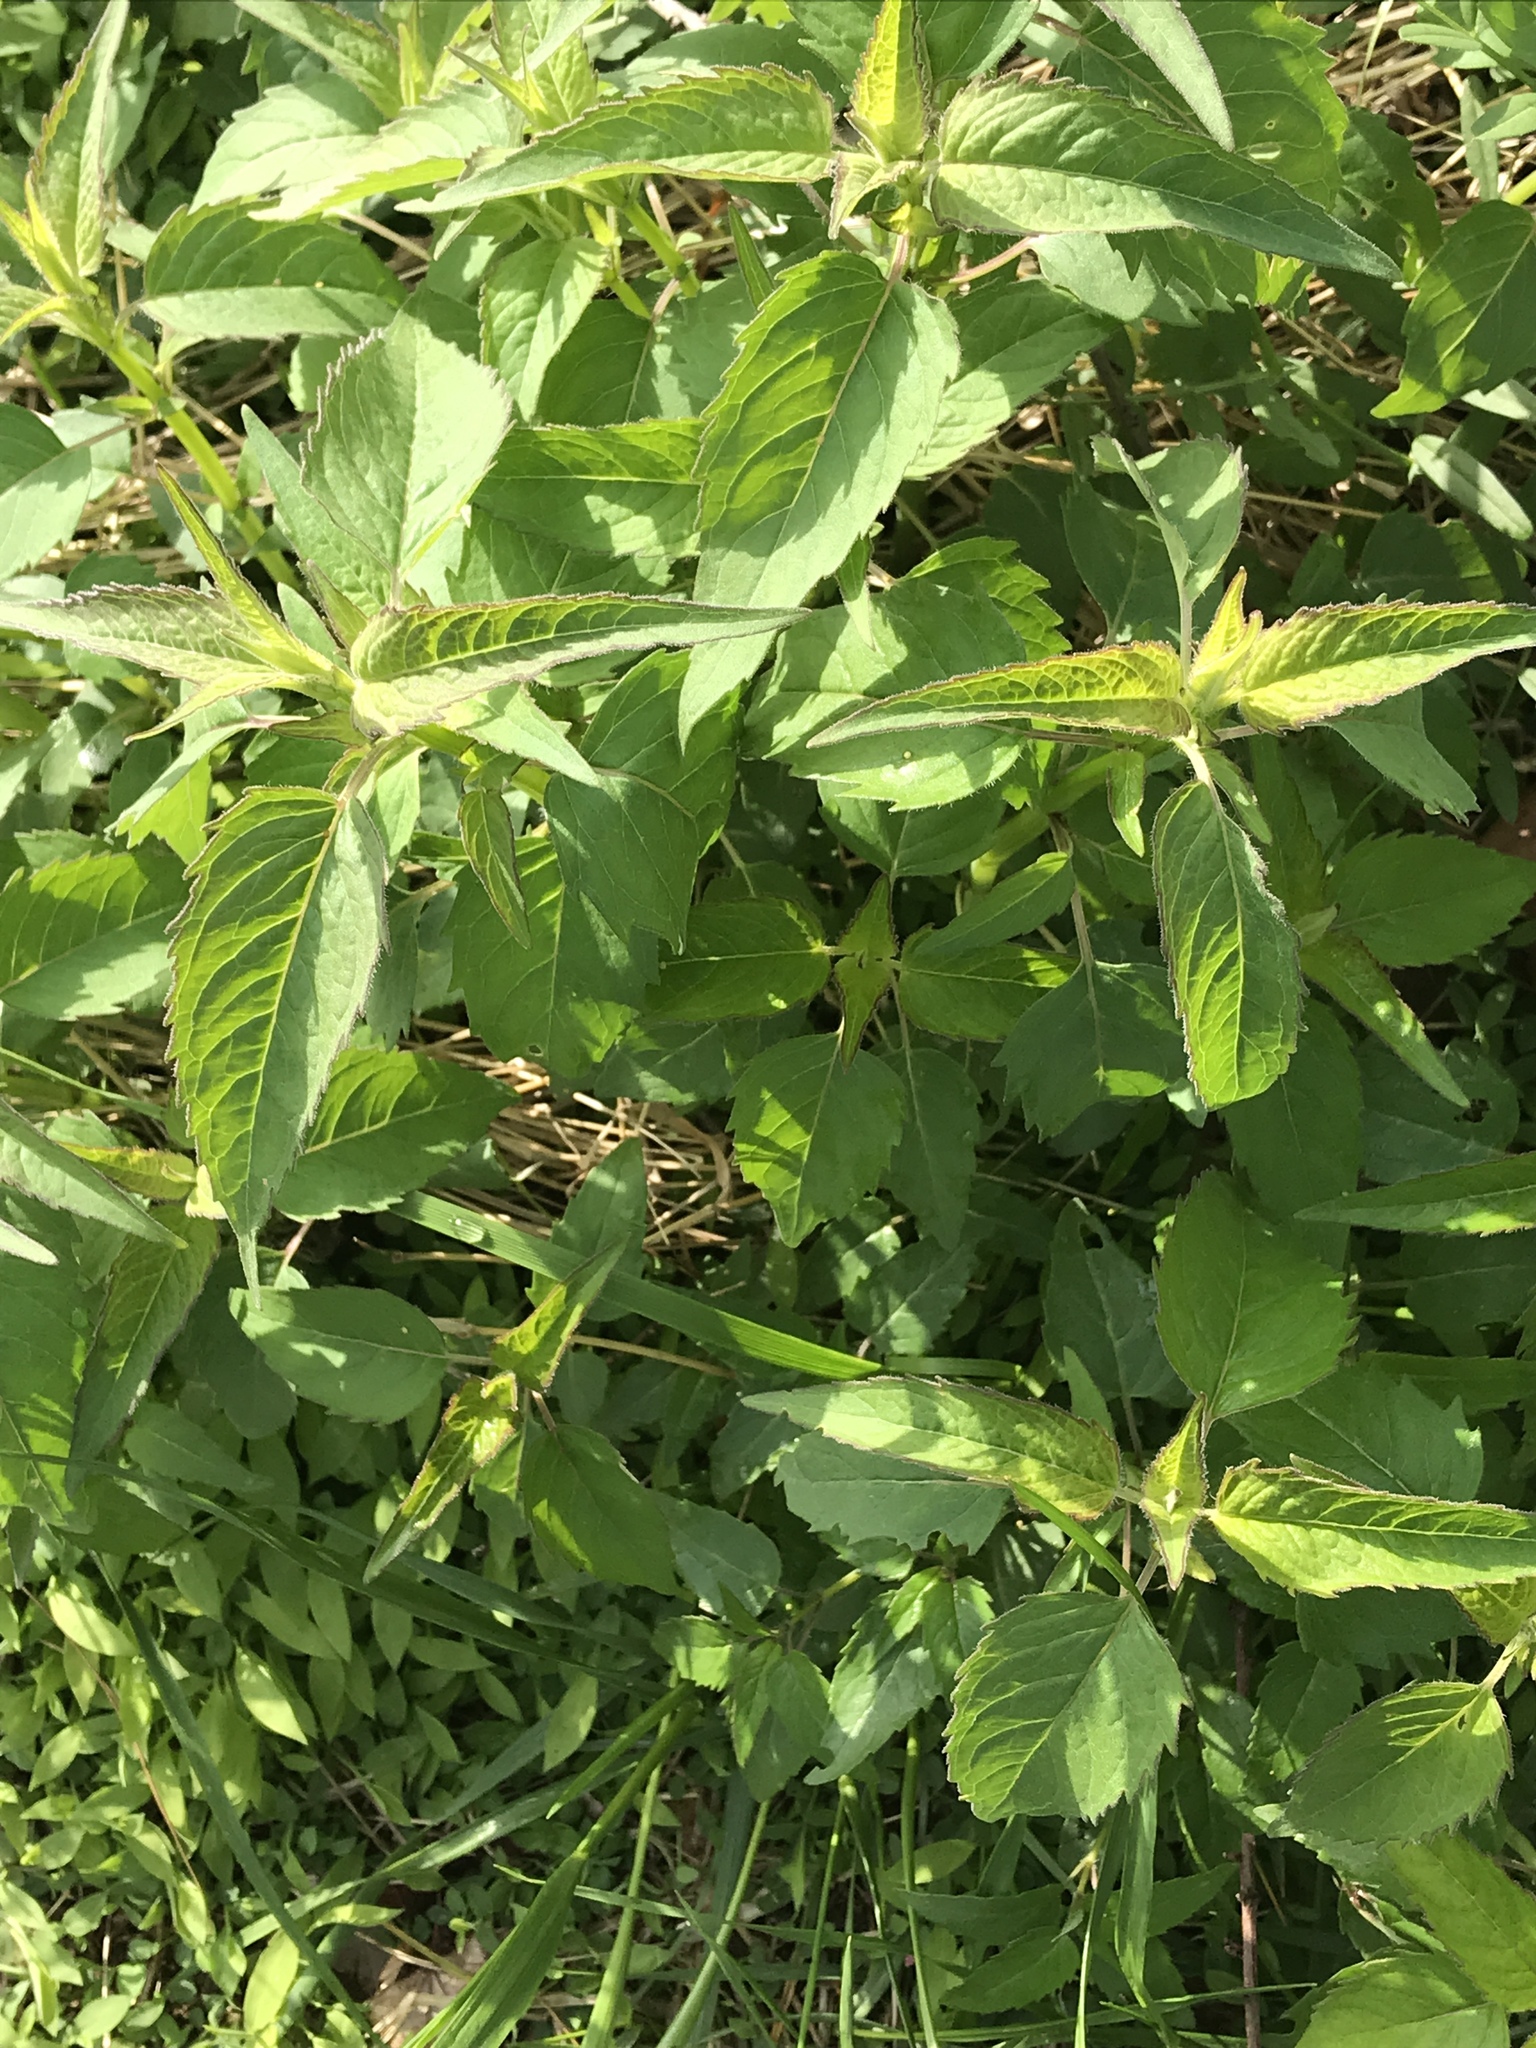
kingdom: Plantae
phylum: Tracheophyta
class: Magnoliopsida
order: Lamiales
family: Lamiaceae
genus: Monarda
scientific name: Monarda fistulosa
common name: Purple beebalm
